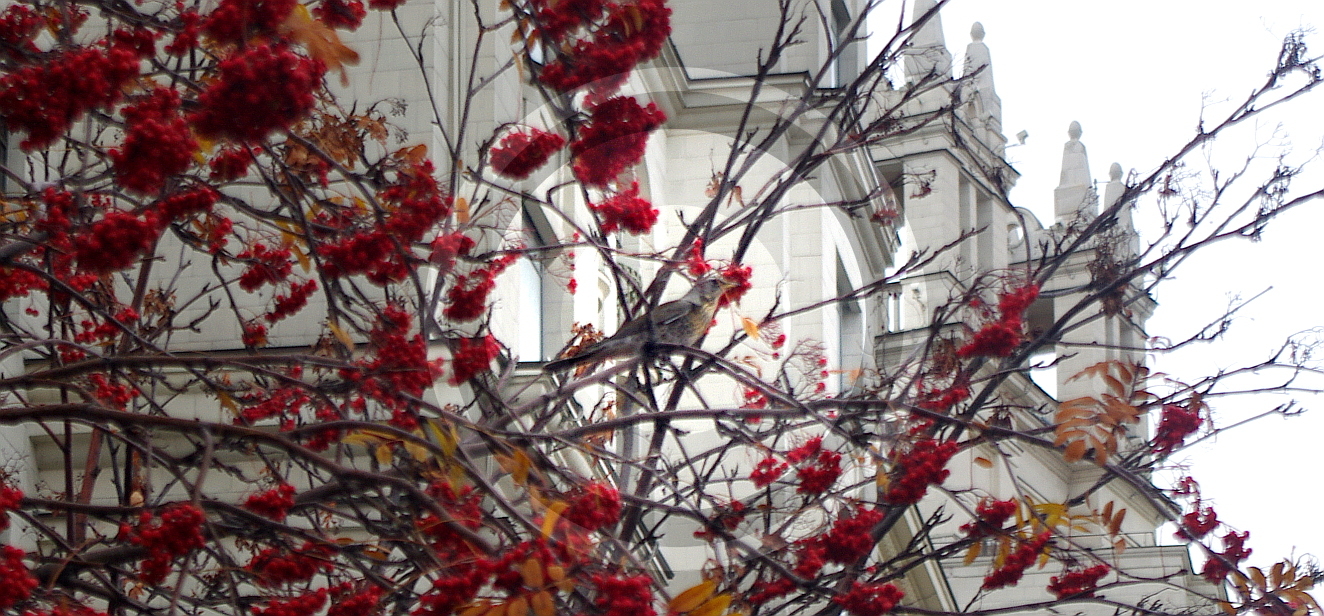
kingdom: Animalia
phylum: Chordata
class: Aves
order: Passeriformes
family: Turdidae
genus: Turdus
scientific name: Turdus pilaris
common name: Fieldfare
